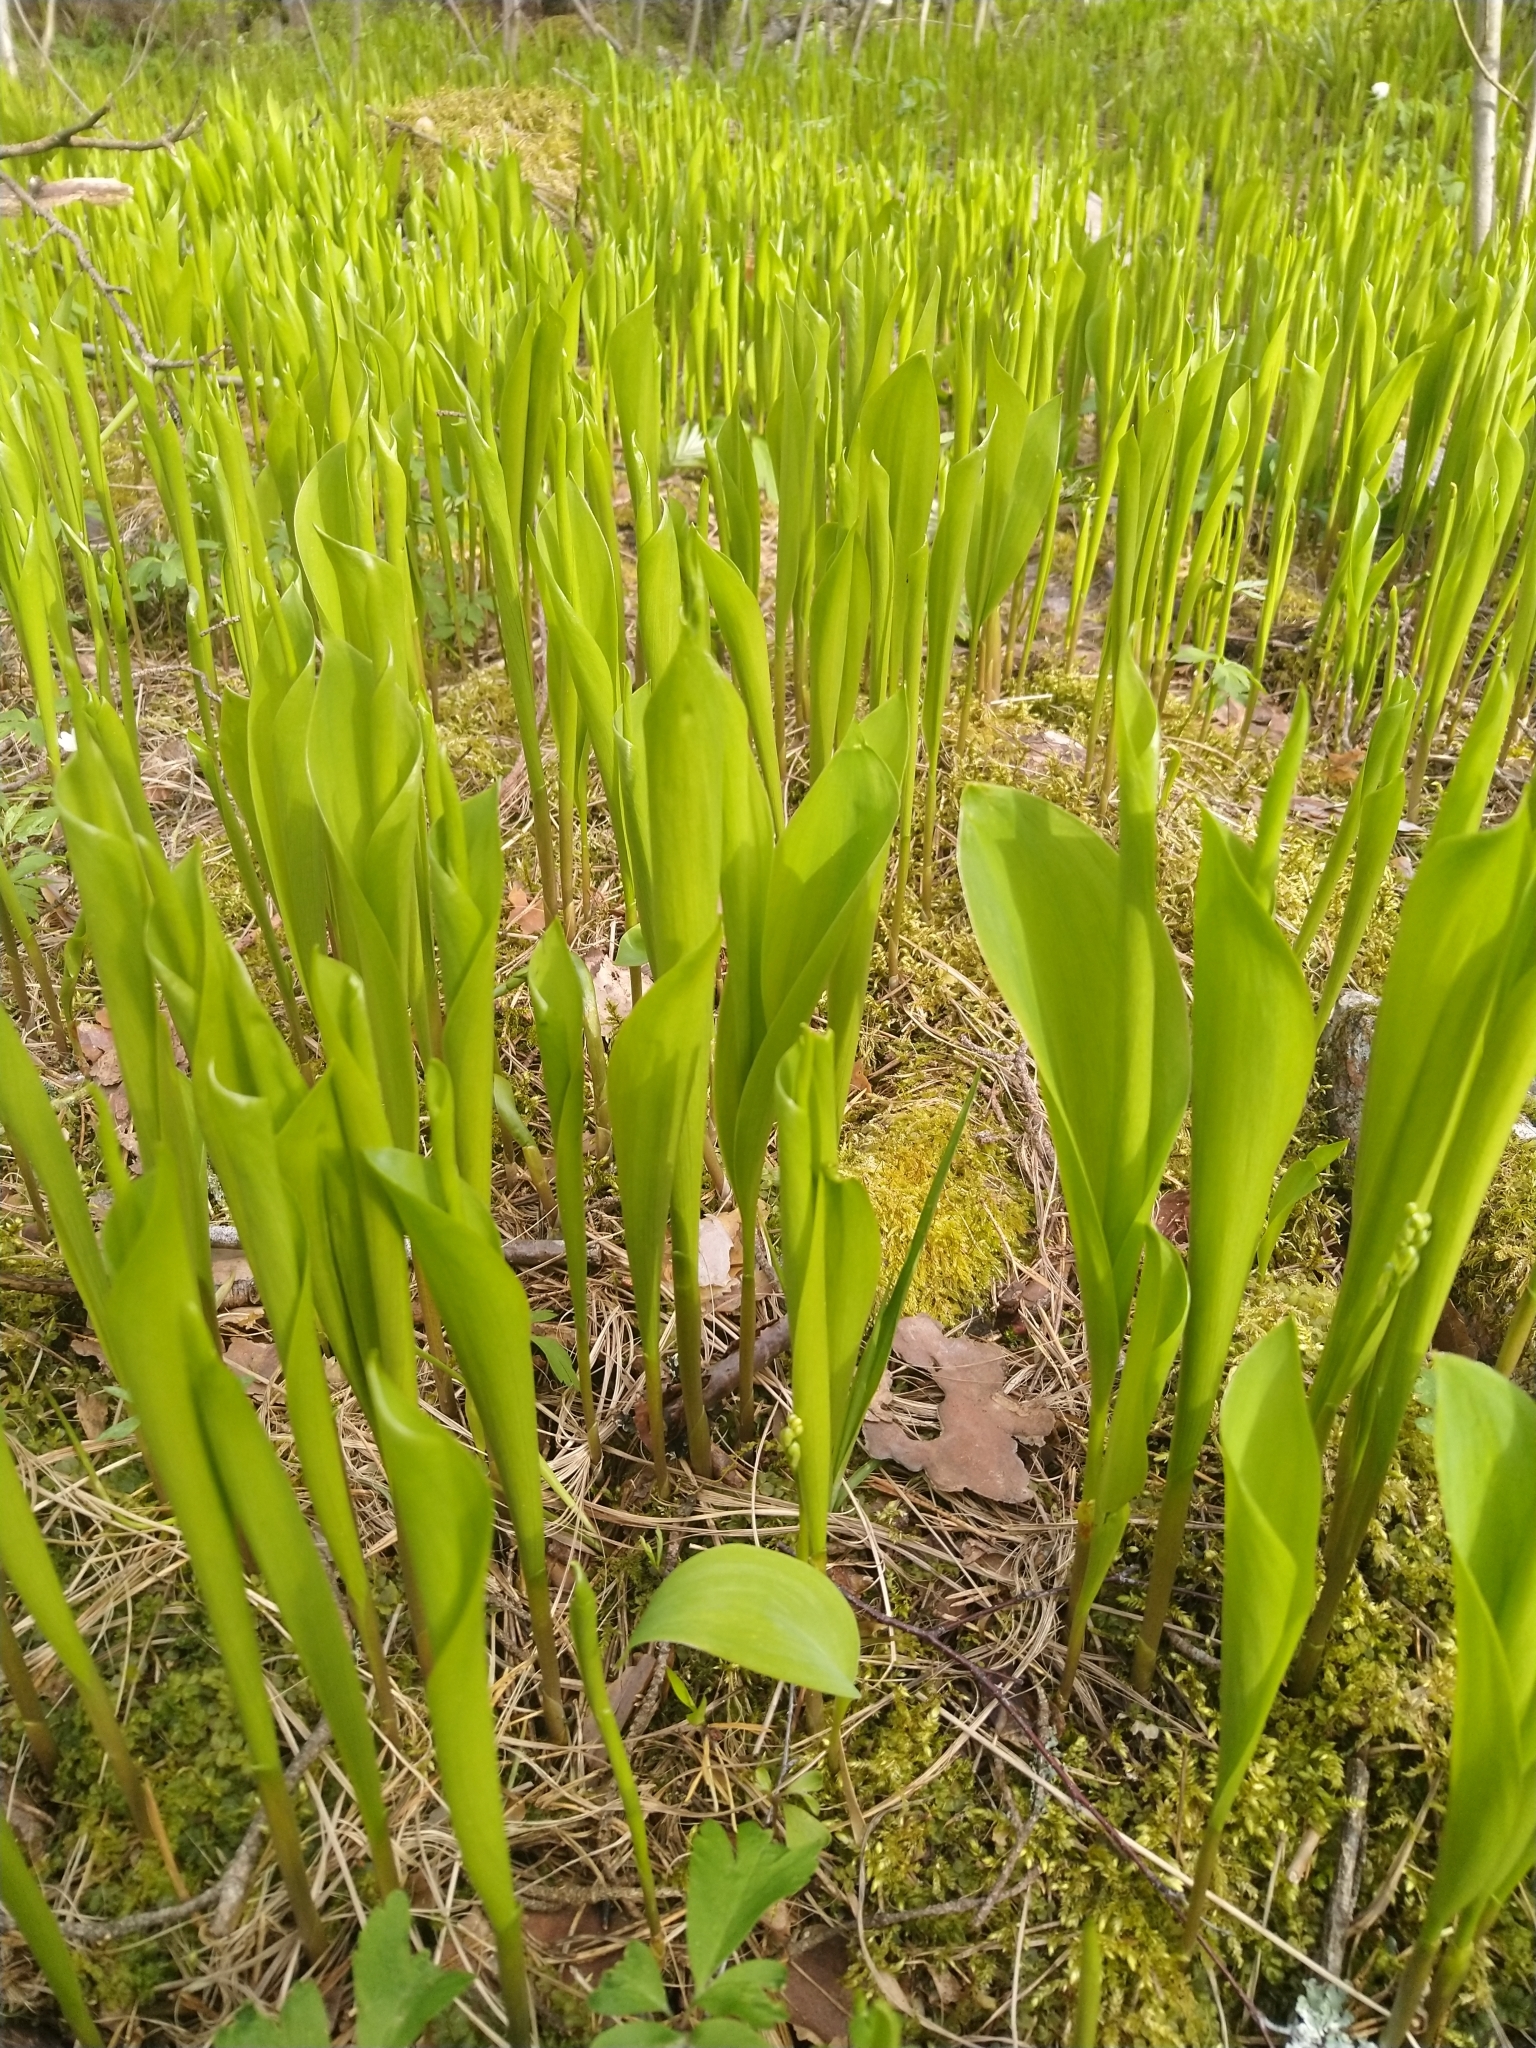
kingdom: Plantae
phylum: Tracheophyta
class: Liliopsida
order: Asparagales
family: Asparagaceae
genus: Convallaria
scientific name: Convallaria majalis
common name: Lily-of-the-valley
